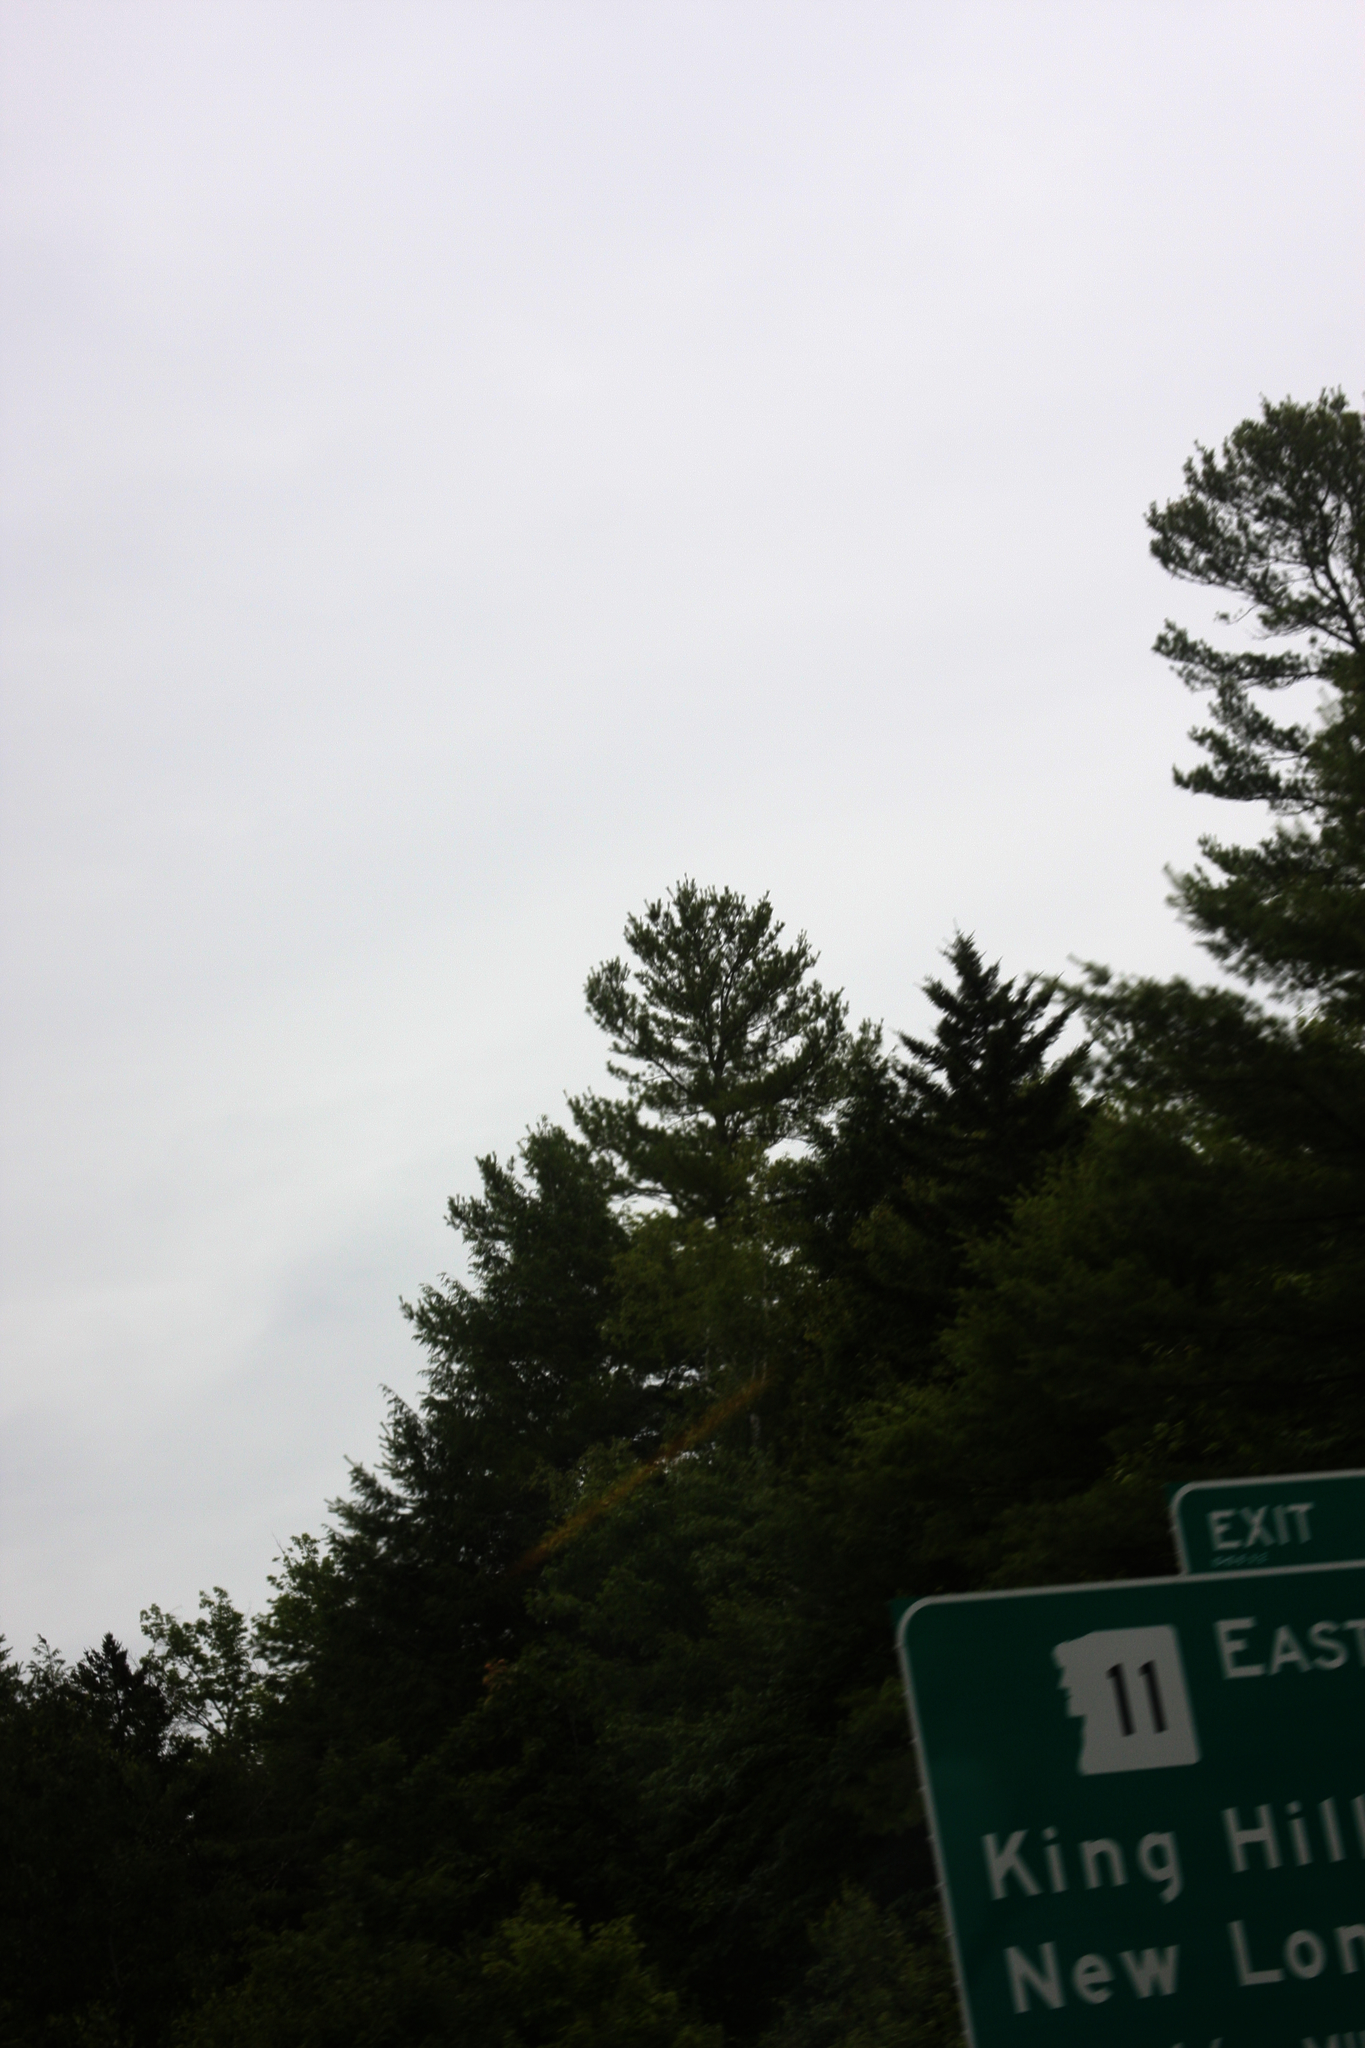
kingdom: Plantae
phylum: Tracheophyta
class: Pinopsida
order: Pinales
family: Pinaceae
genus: Pinus
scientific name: Pinus strobus
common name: Weymouth pine
